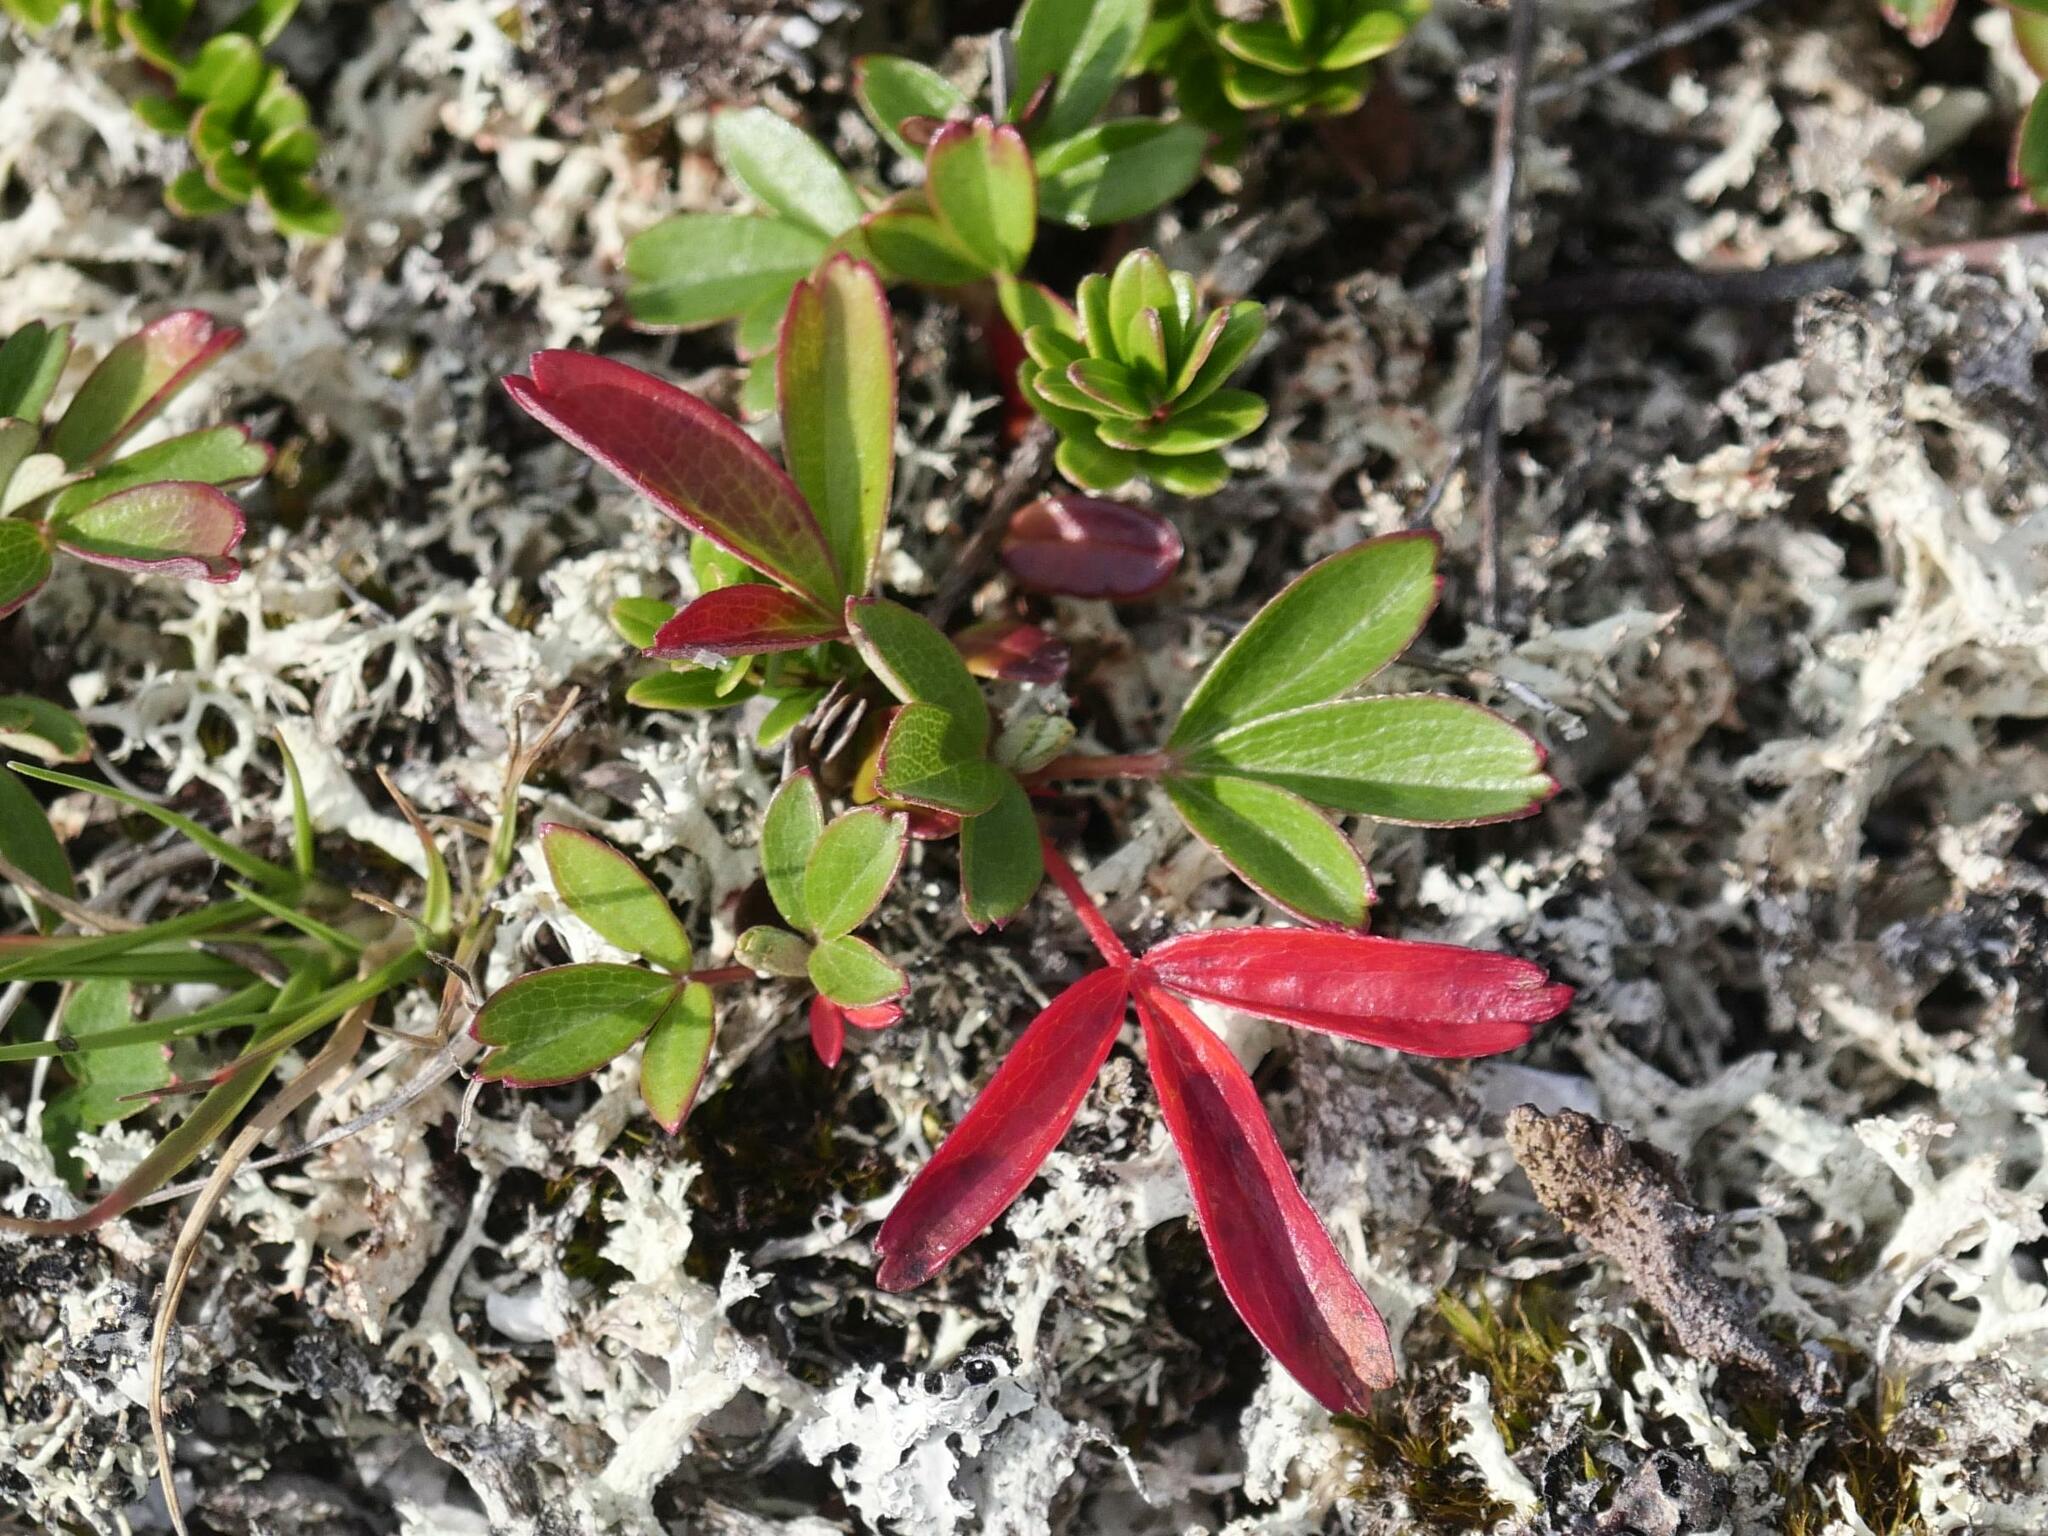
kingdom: Plantae
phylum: Tracheophyta
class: Magnoliopsida
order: Rosales
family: Rosaceae
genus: Sibbaldia
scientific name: Sibbaldia tridentata
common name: Three-toothed cinquefoil
